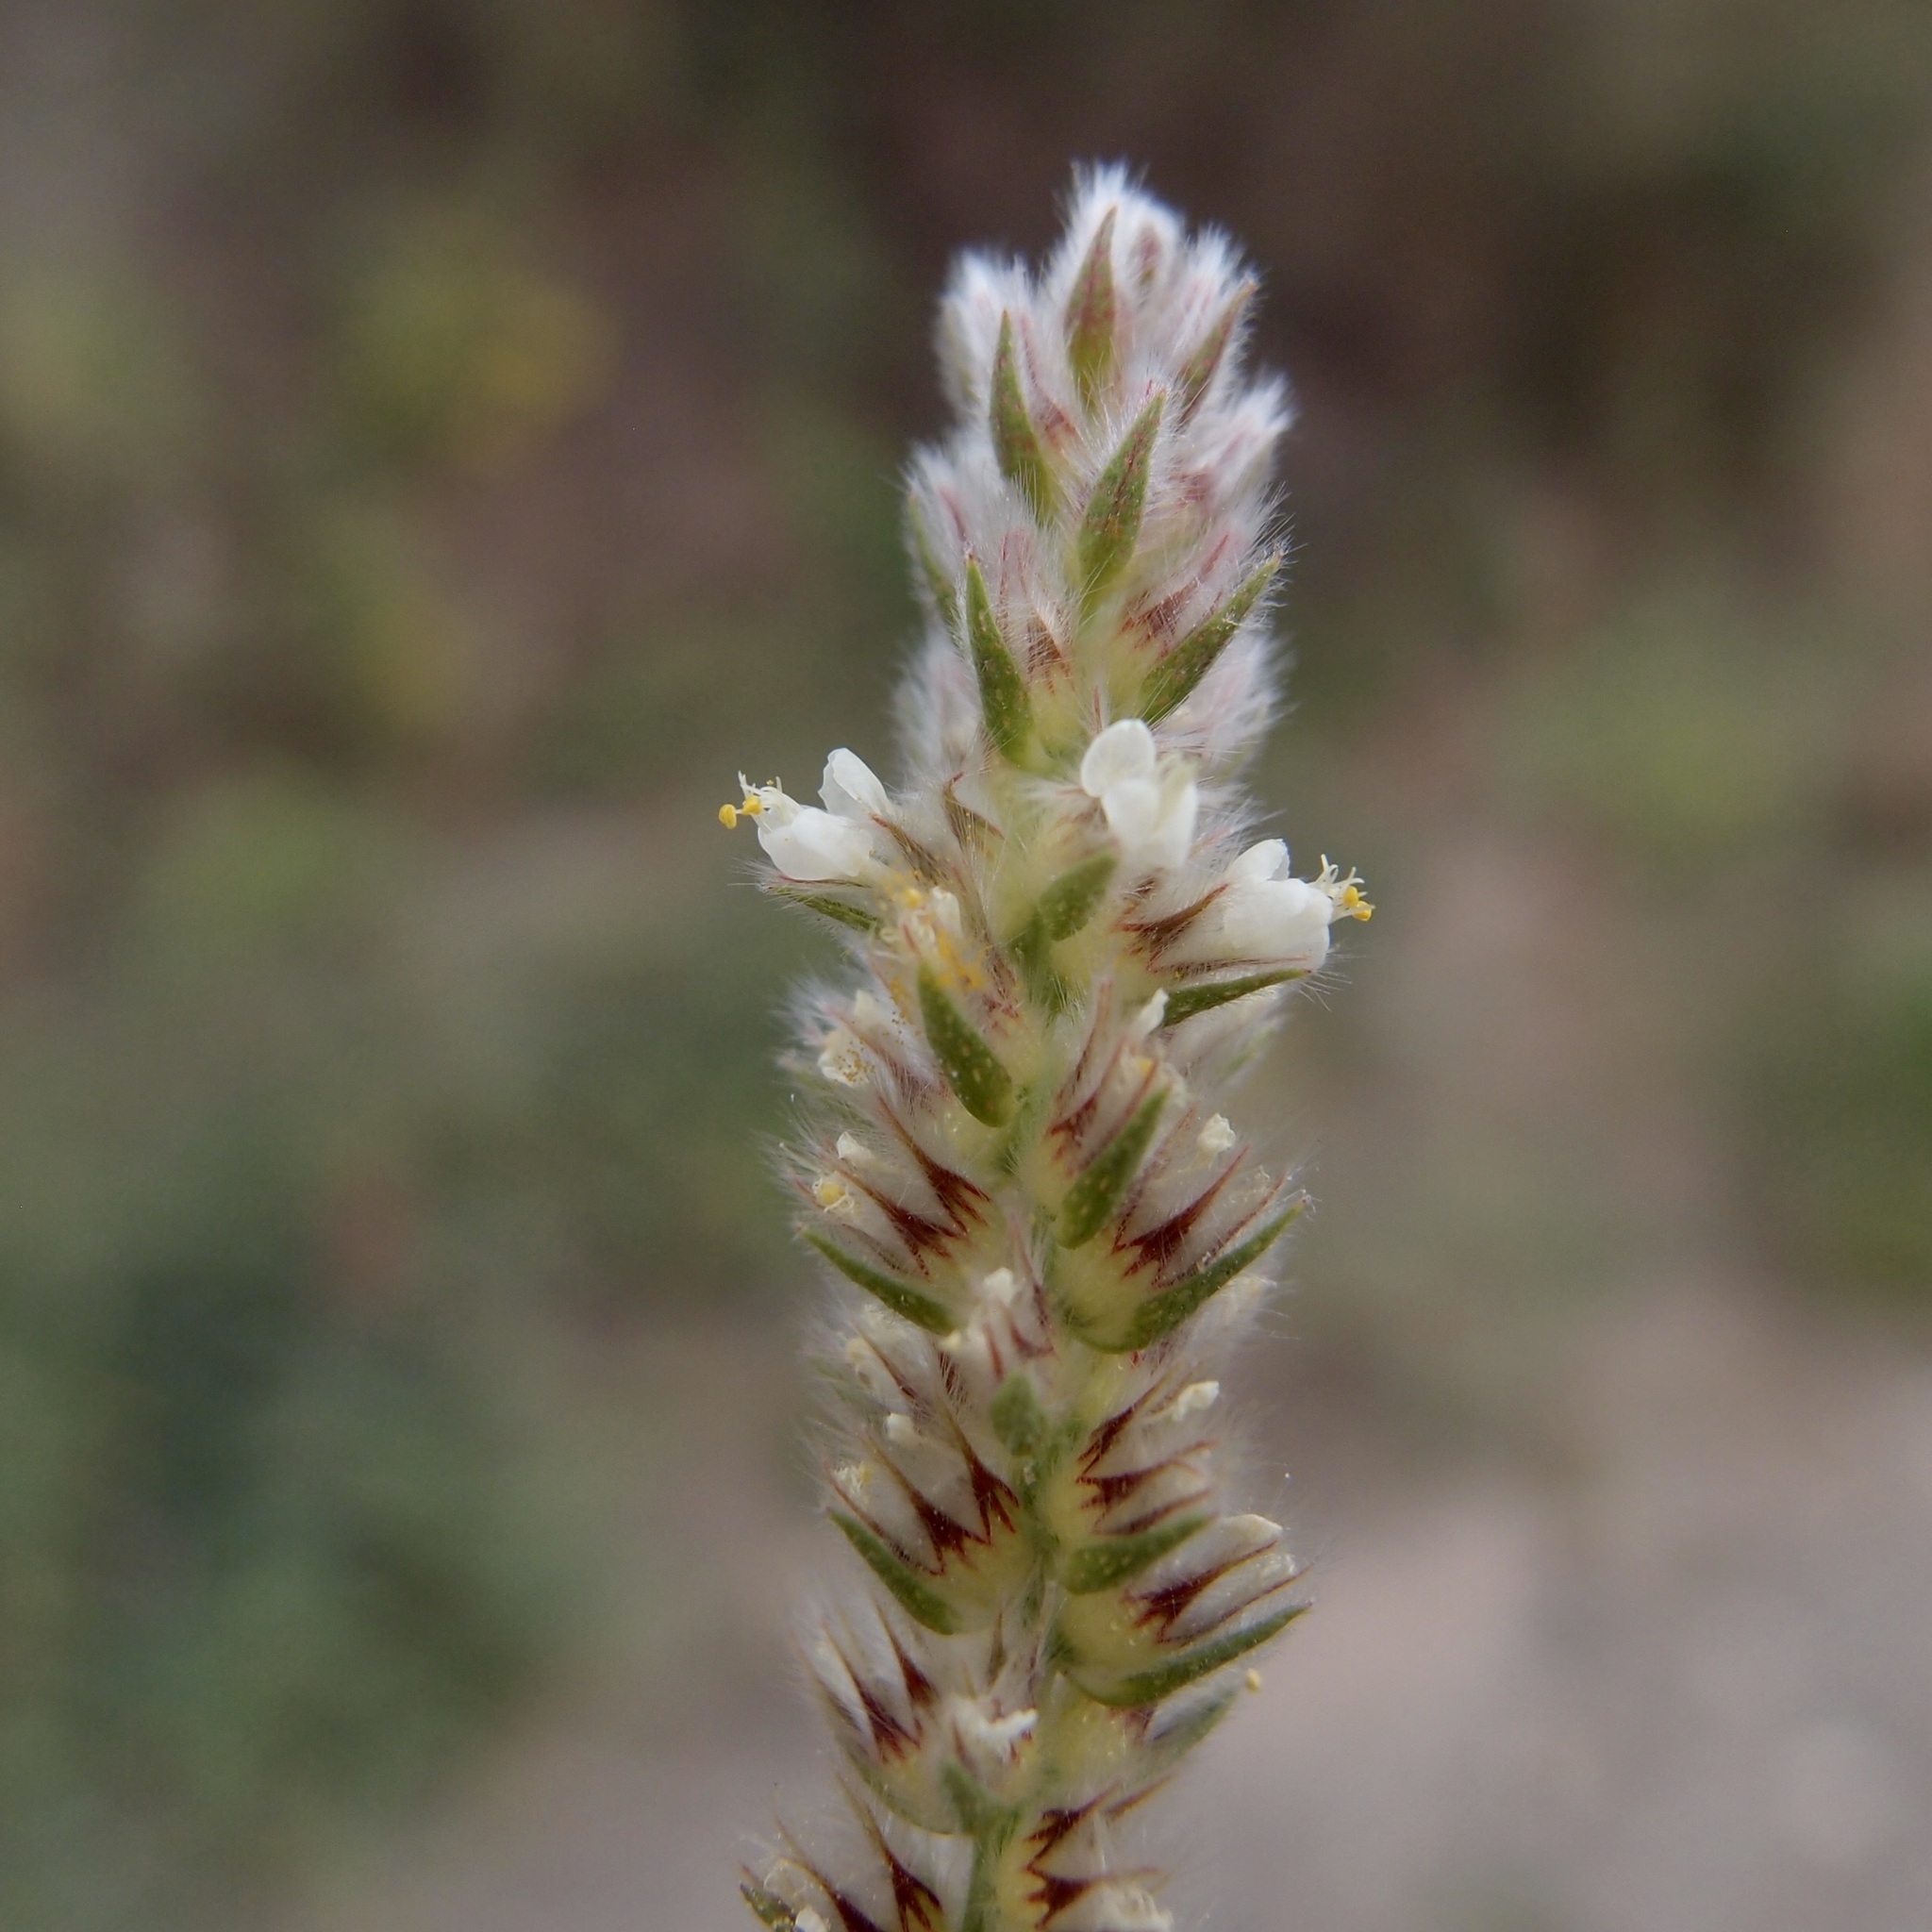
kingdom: Plantae
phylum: Tracheophyta
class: Magnoliopsida
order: Fabales
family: Fabaceae
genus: Dalea
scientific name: Dalea elata
